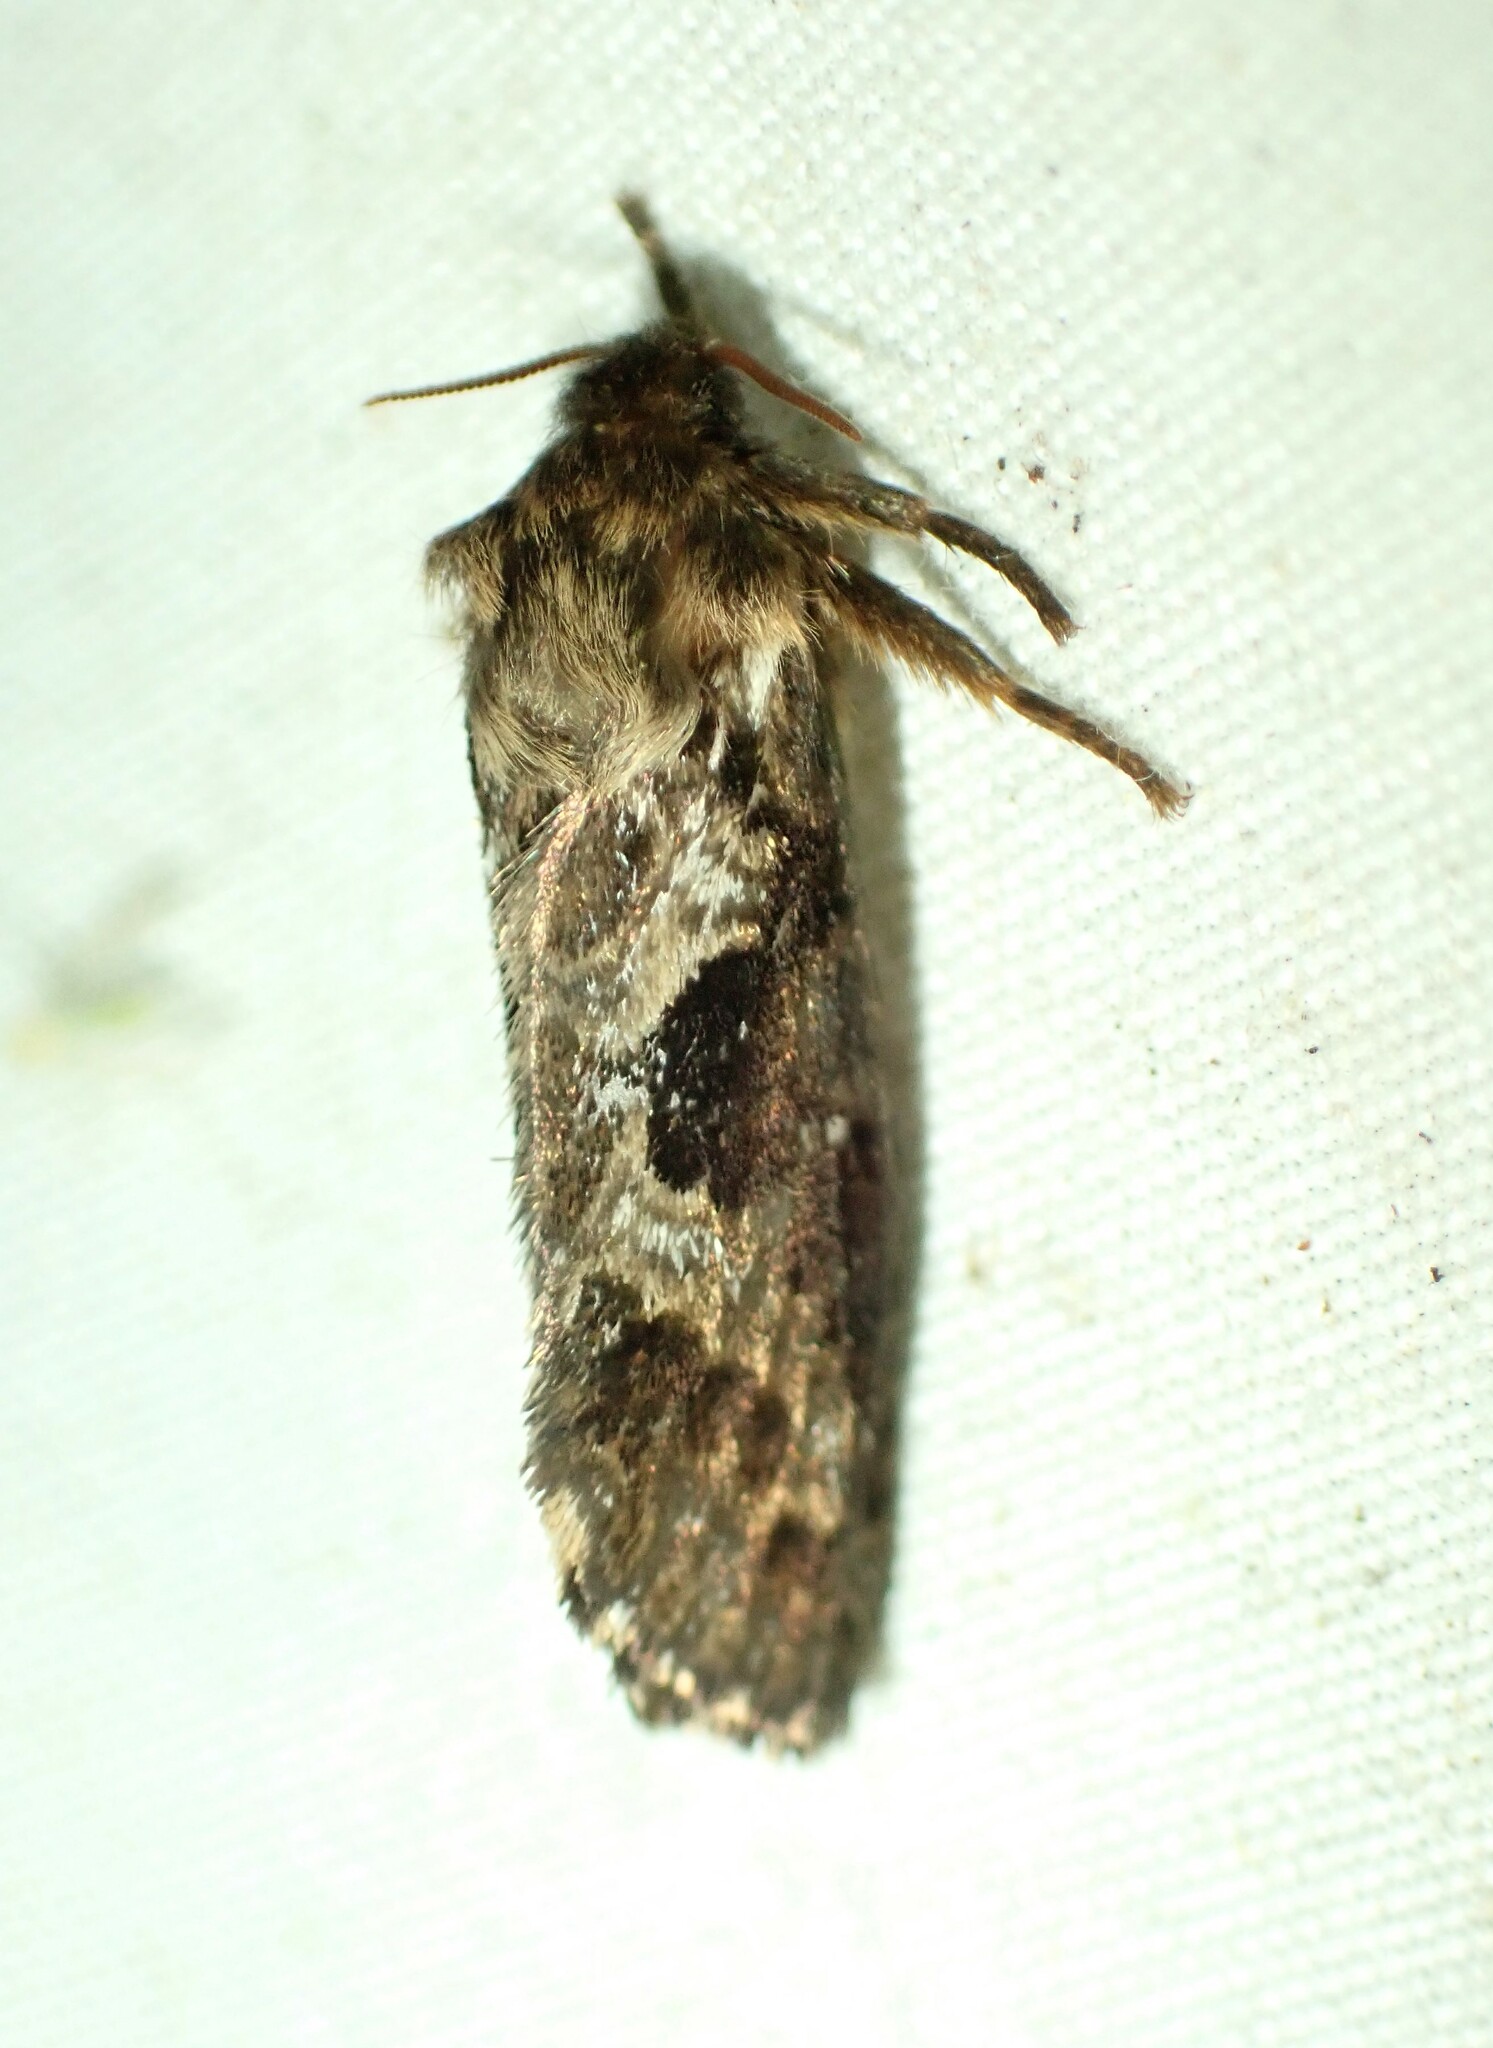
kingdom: Animalia
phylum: Arthropoda
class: Insecta
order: Lepidoptera
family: Hepialidae
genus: Korscheltellus
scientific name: Korscheltellus gracilis
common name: Conifer swift moth
